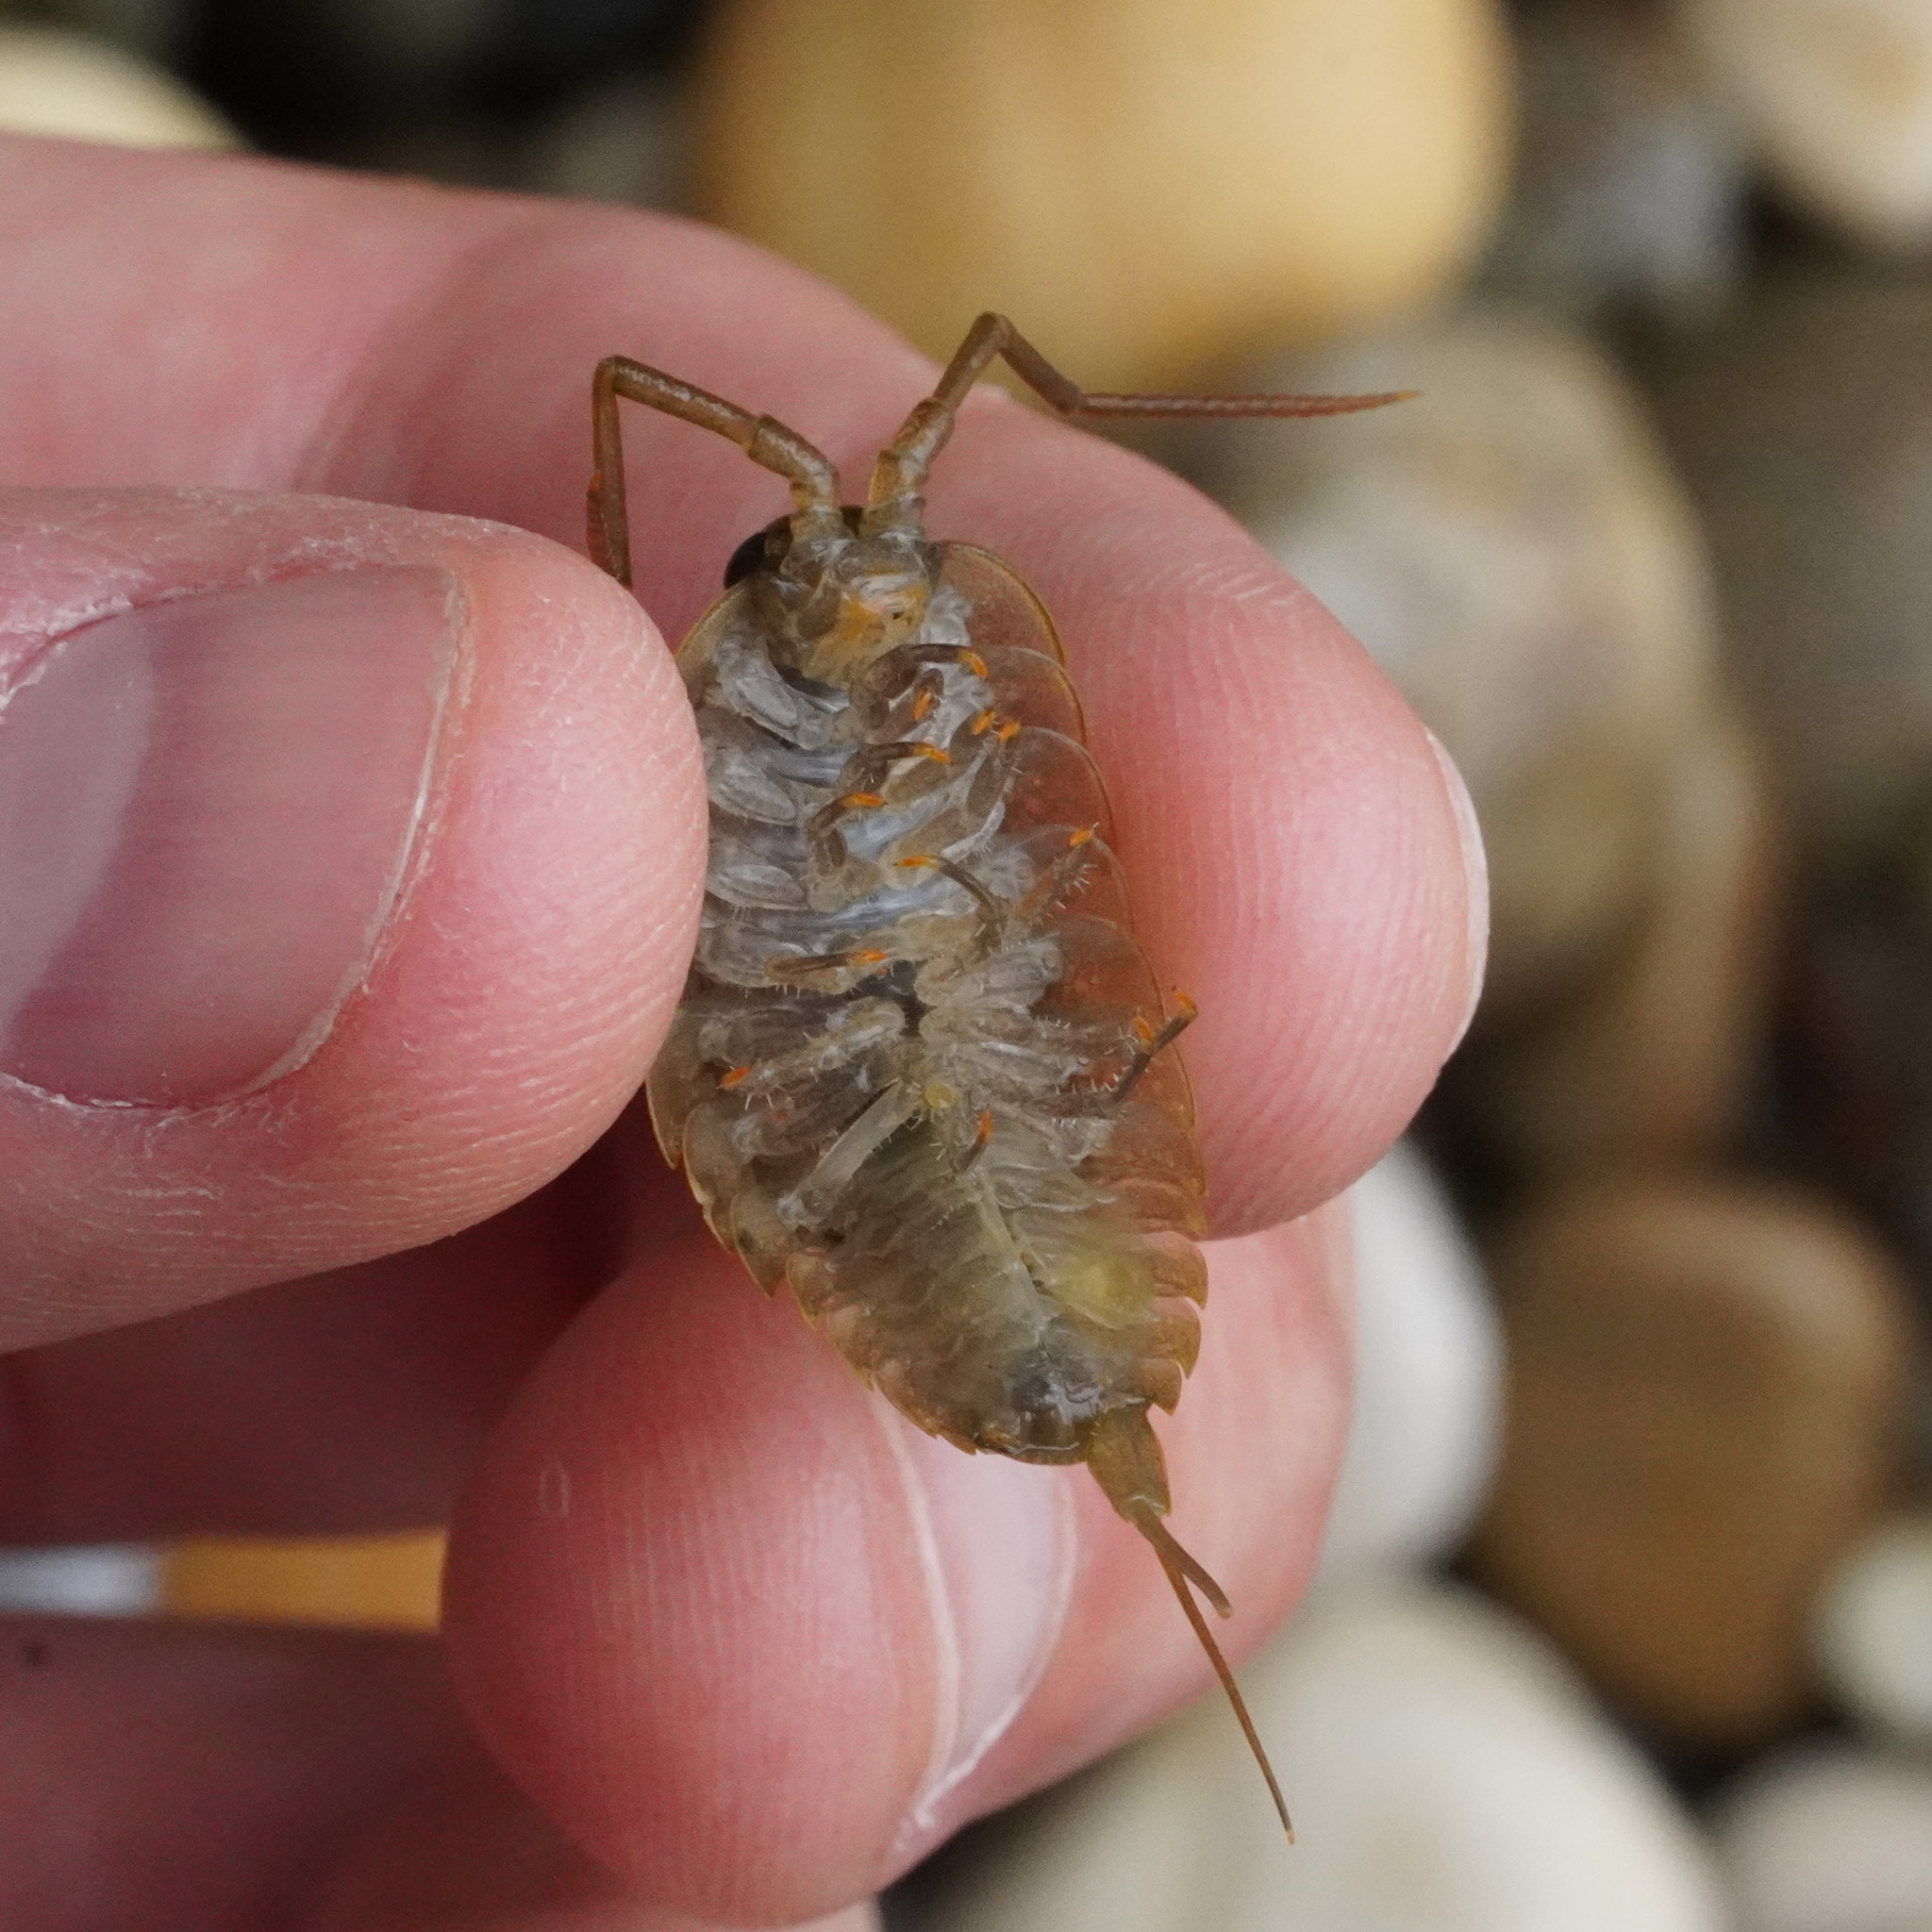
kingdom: Animalia
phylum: Arthropoda
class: Malacostraca
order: Isopoda
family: Ligiidae
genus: Ligia
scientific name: Ligia oceanica
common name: Sea slater
